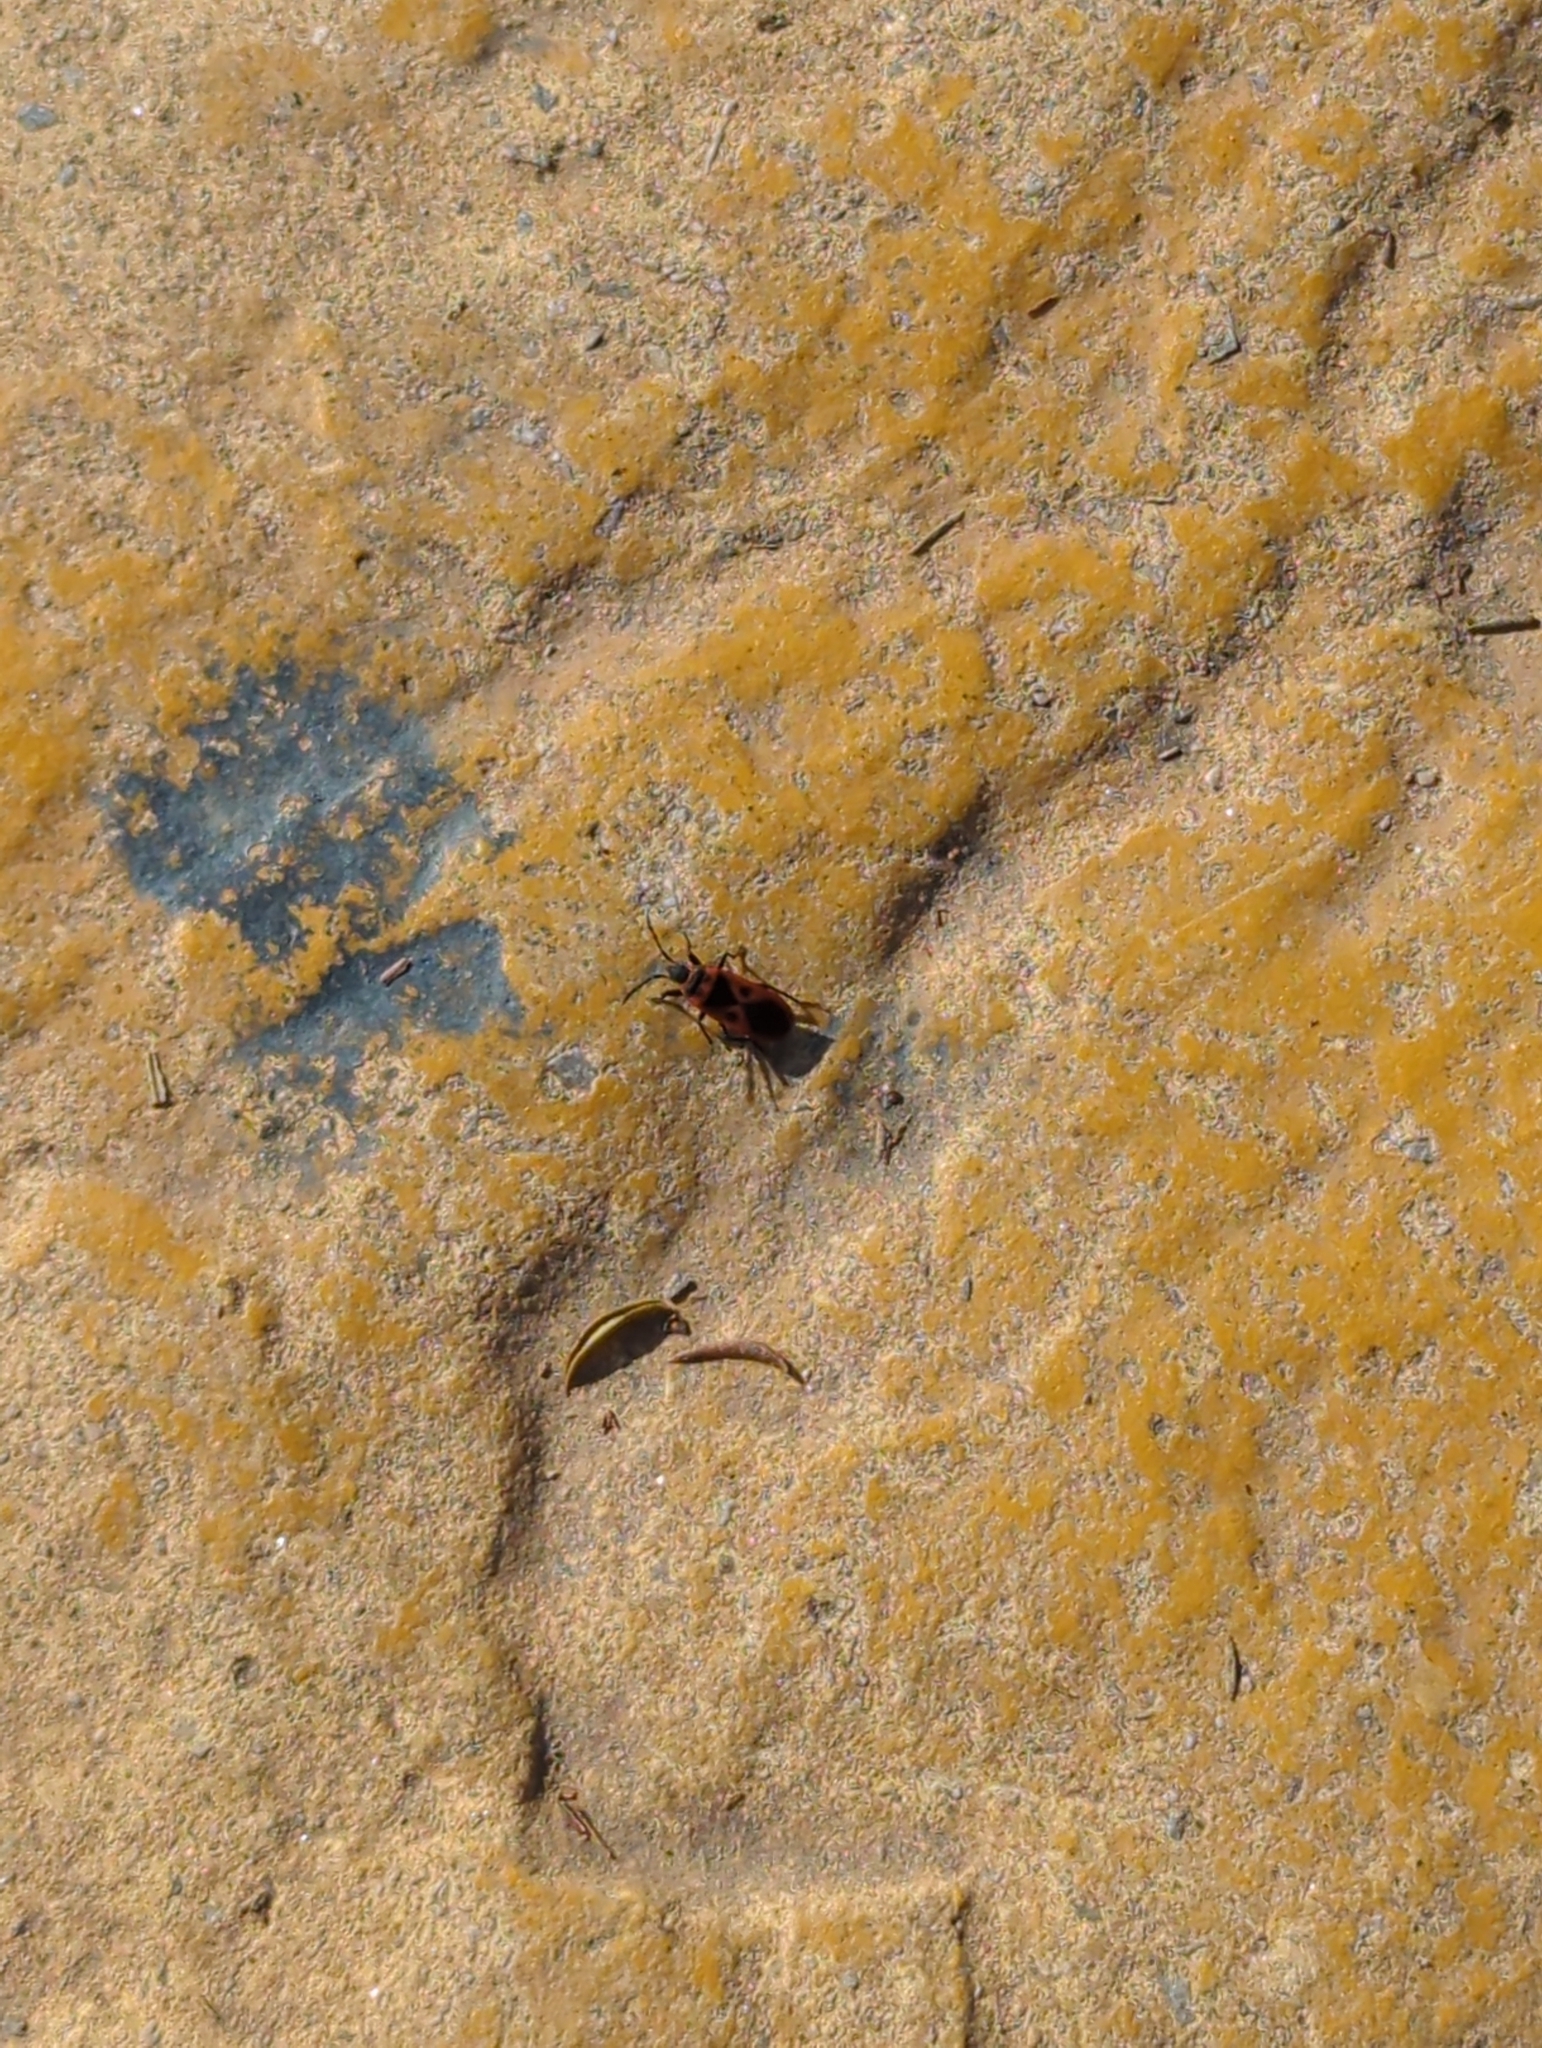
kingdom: Animalia
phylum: Arthropoda
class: Insecta
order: Hemiptera
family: Pyrrhocoridae
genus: Scantius
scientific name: Scantius aegyptius
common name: Red bug
